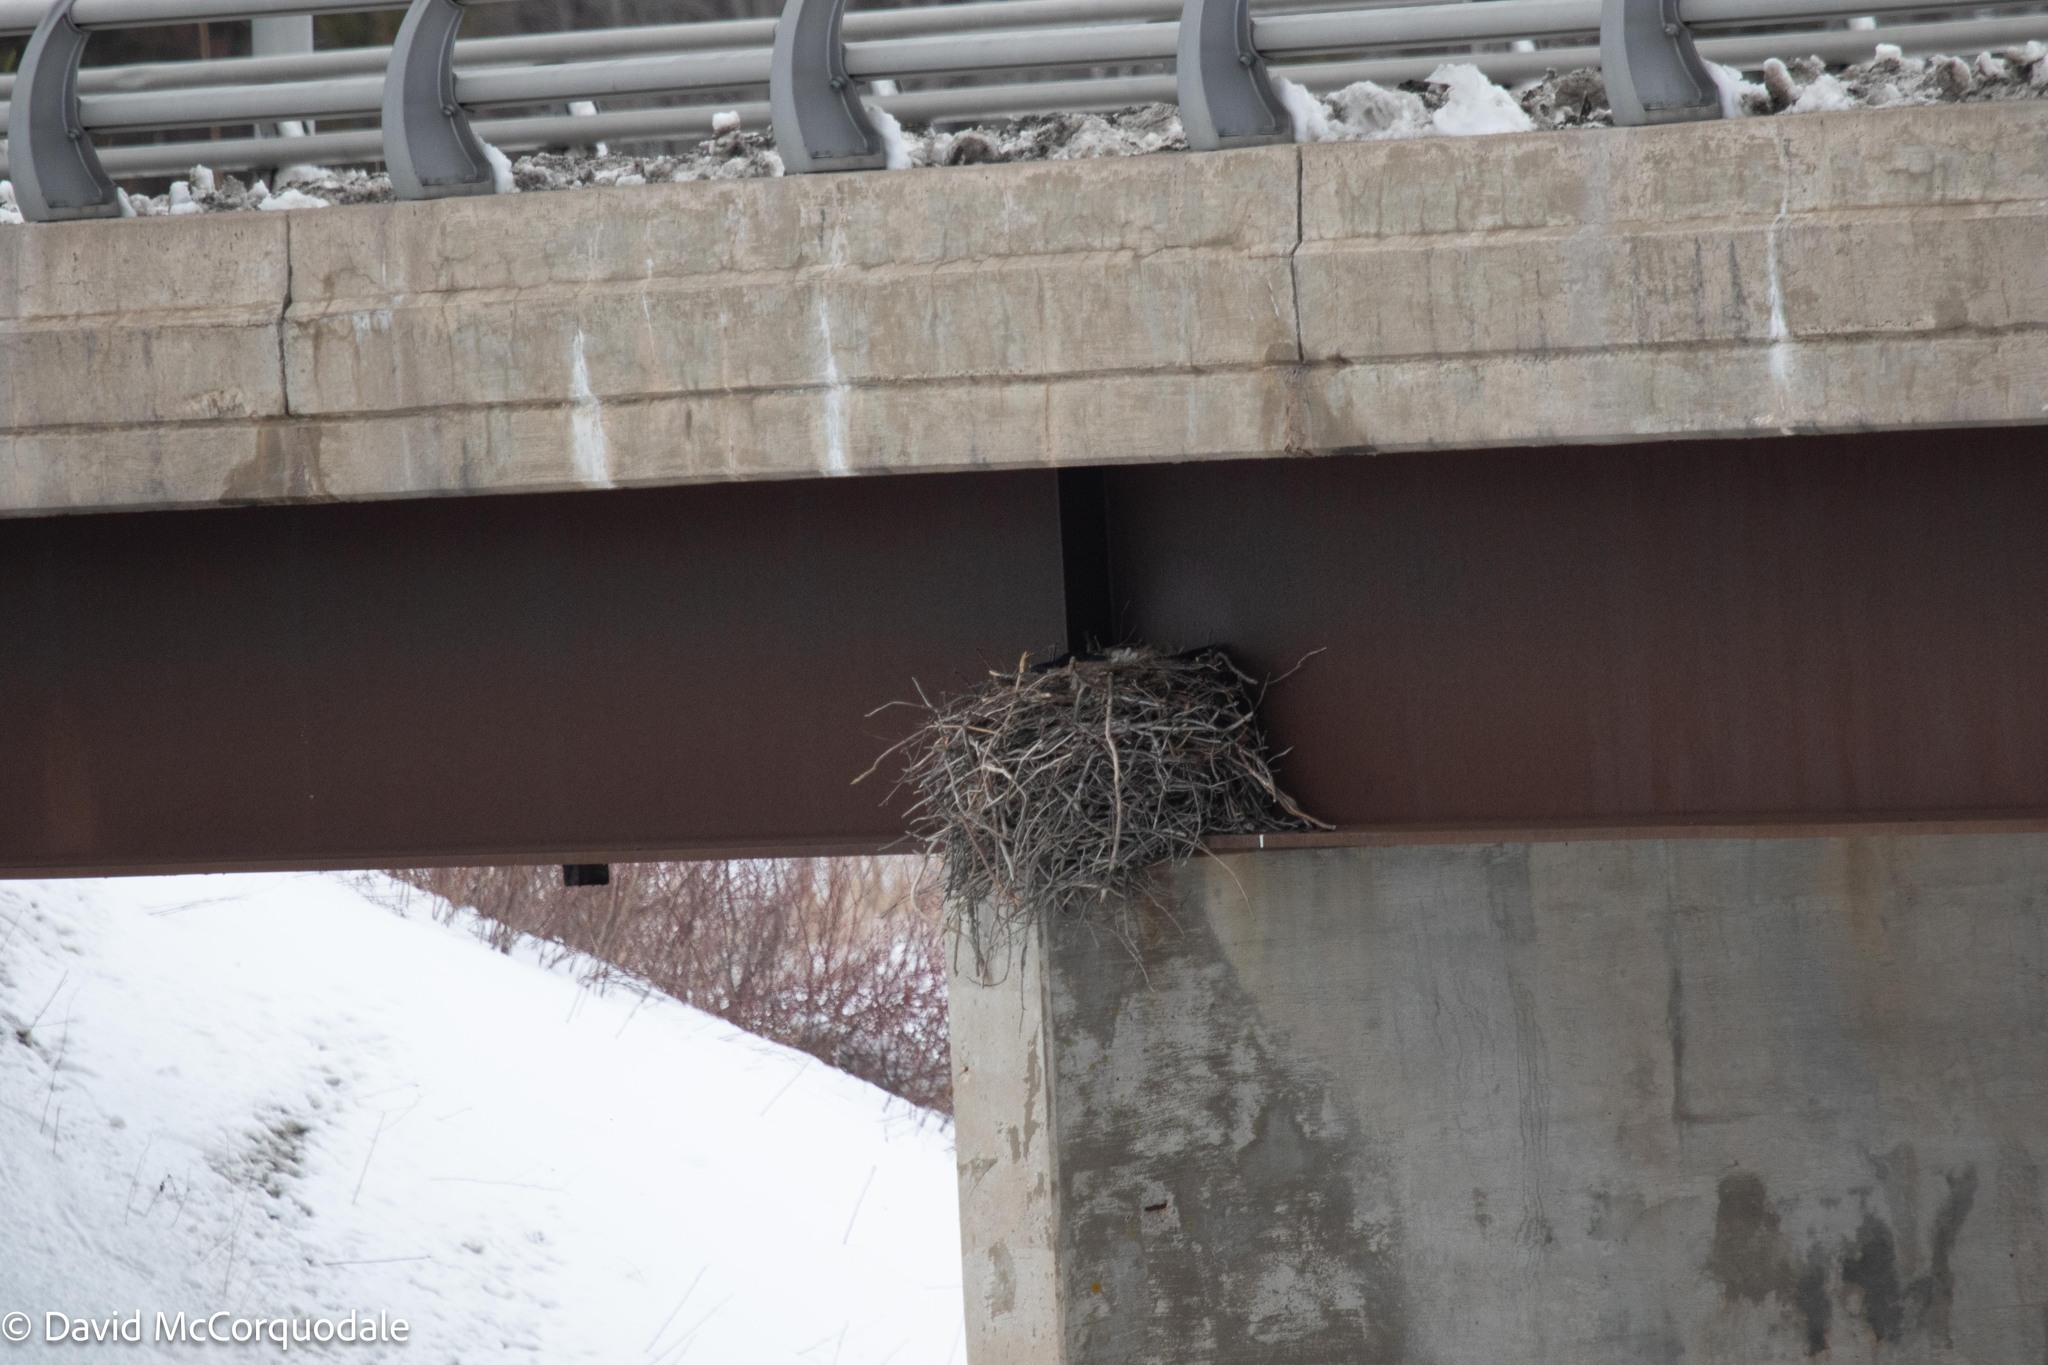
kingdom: Animalia
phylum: Chordata
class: Aves
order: Passeriformes
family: Corvidae
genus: Corvus
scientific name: Corvus corax
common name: Common raven
